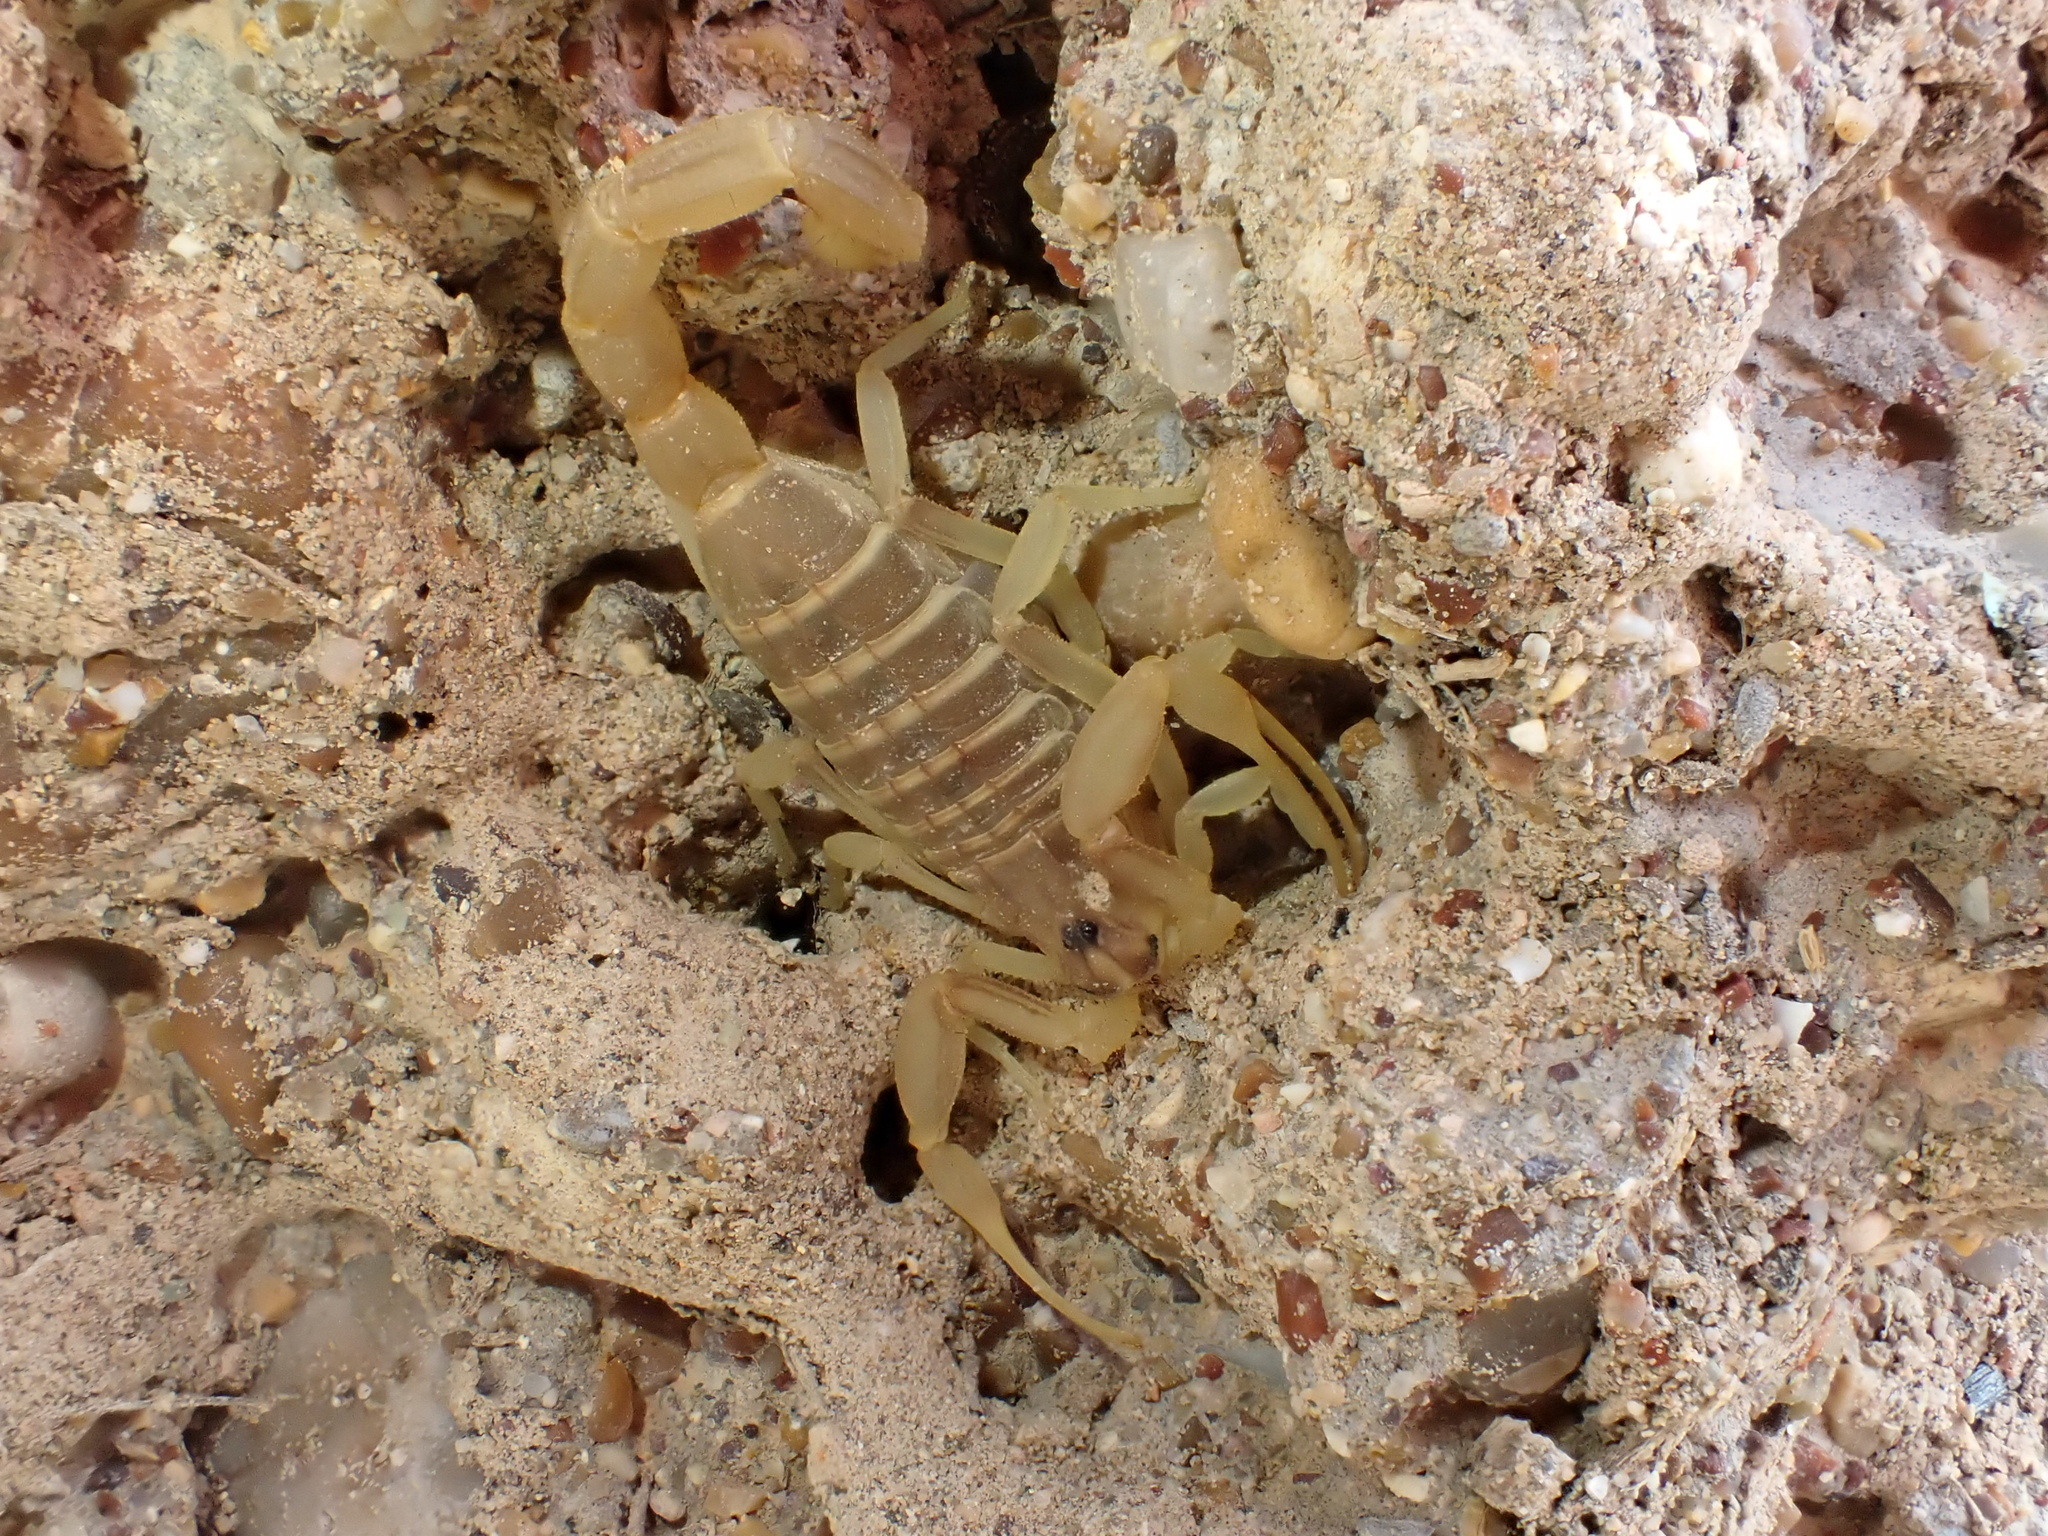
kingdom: Animalia
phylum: Arthropoda
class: Arachnida
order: Scorpiones
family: Buthidae
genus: Compsobuthus
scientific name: Compsobuthus jakesi
